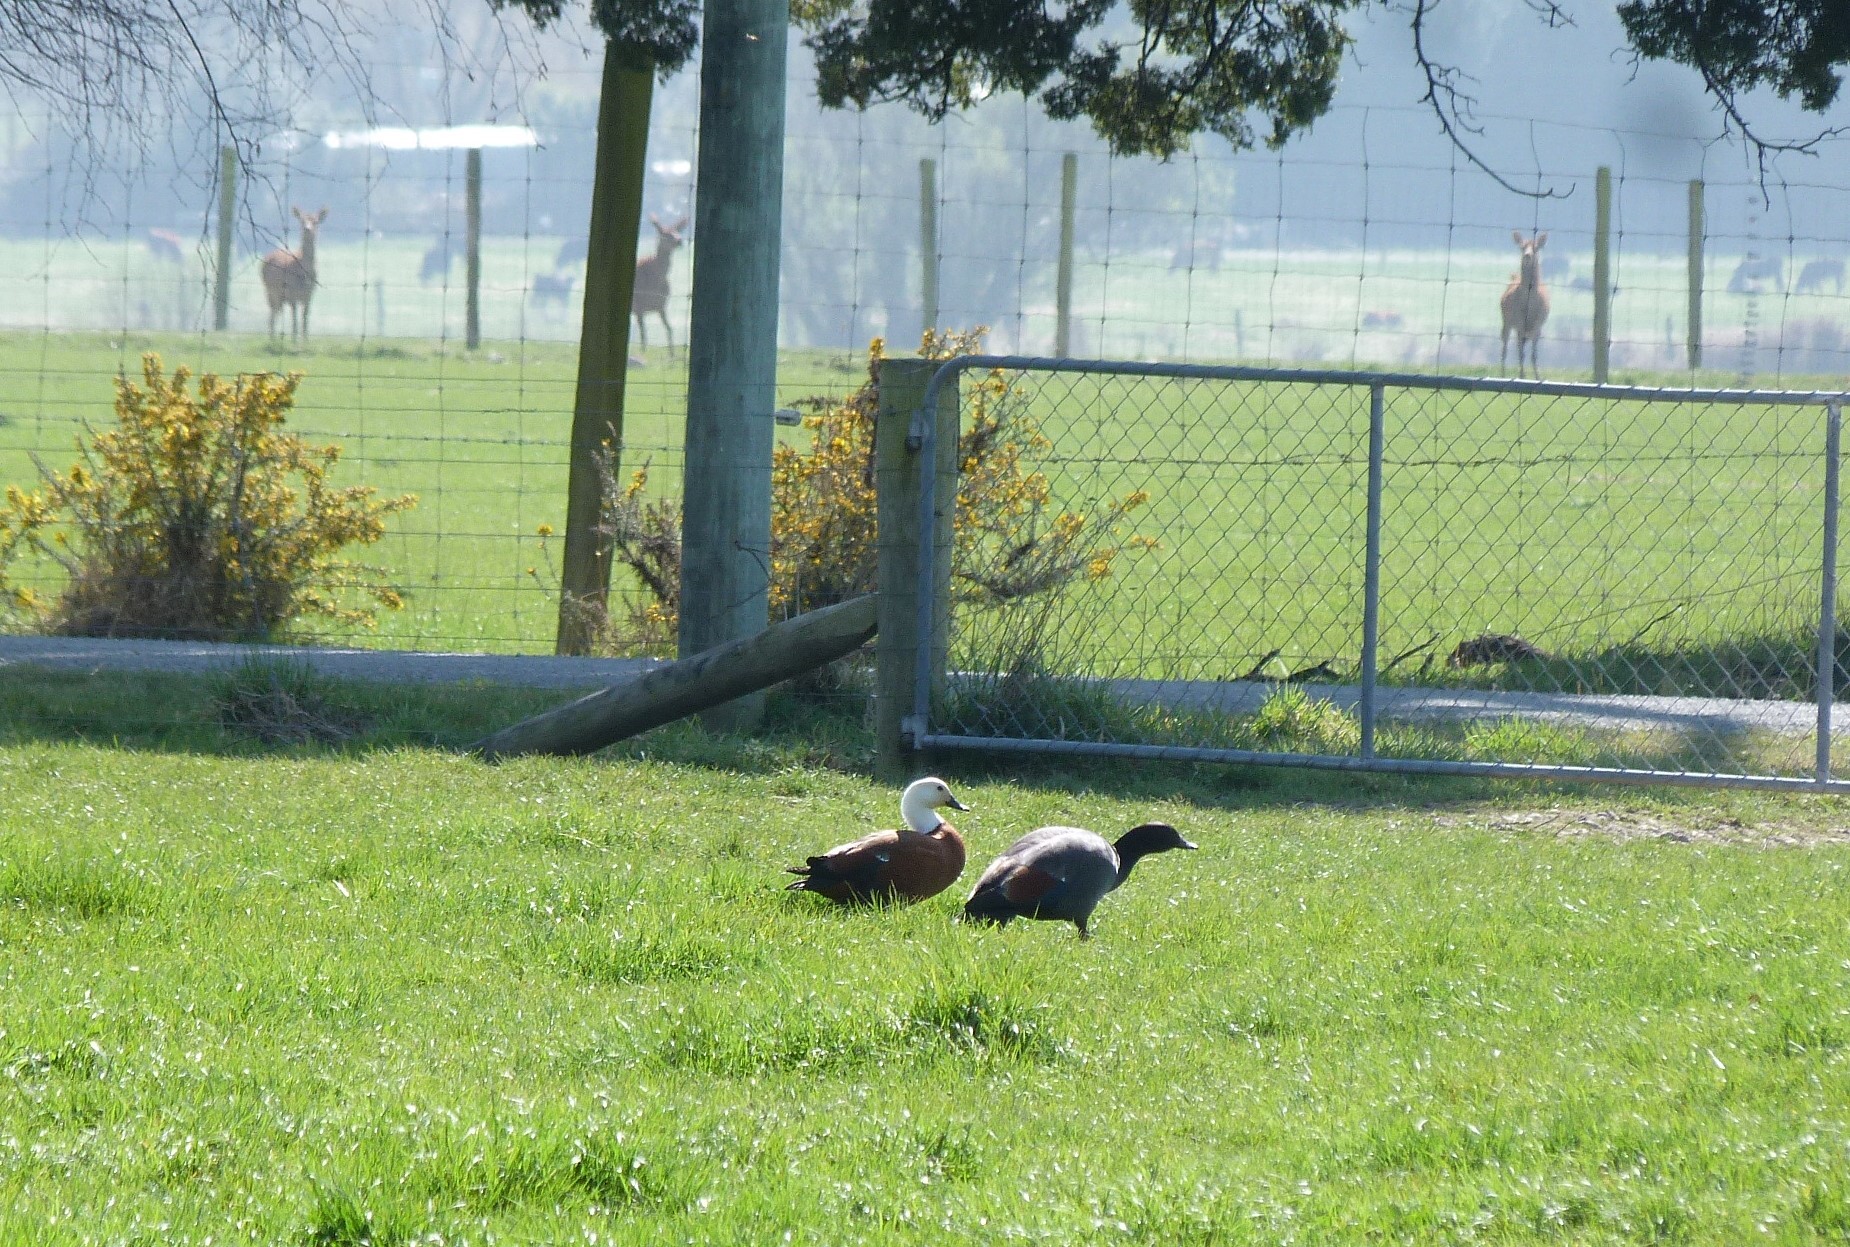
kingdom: Animalia
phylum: Chordata
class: Aves
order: Anseriformes
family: Anatidae
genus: Tadorna
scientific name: Tadorna variegata
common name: Paradise shelduck
